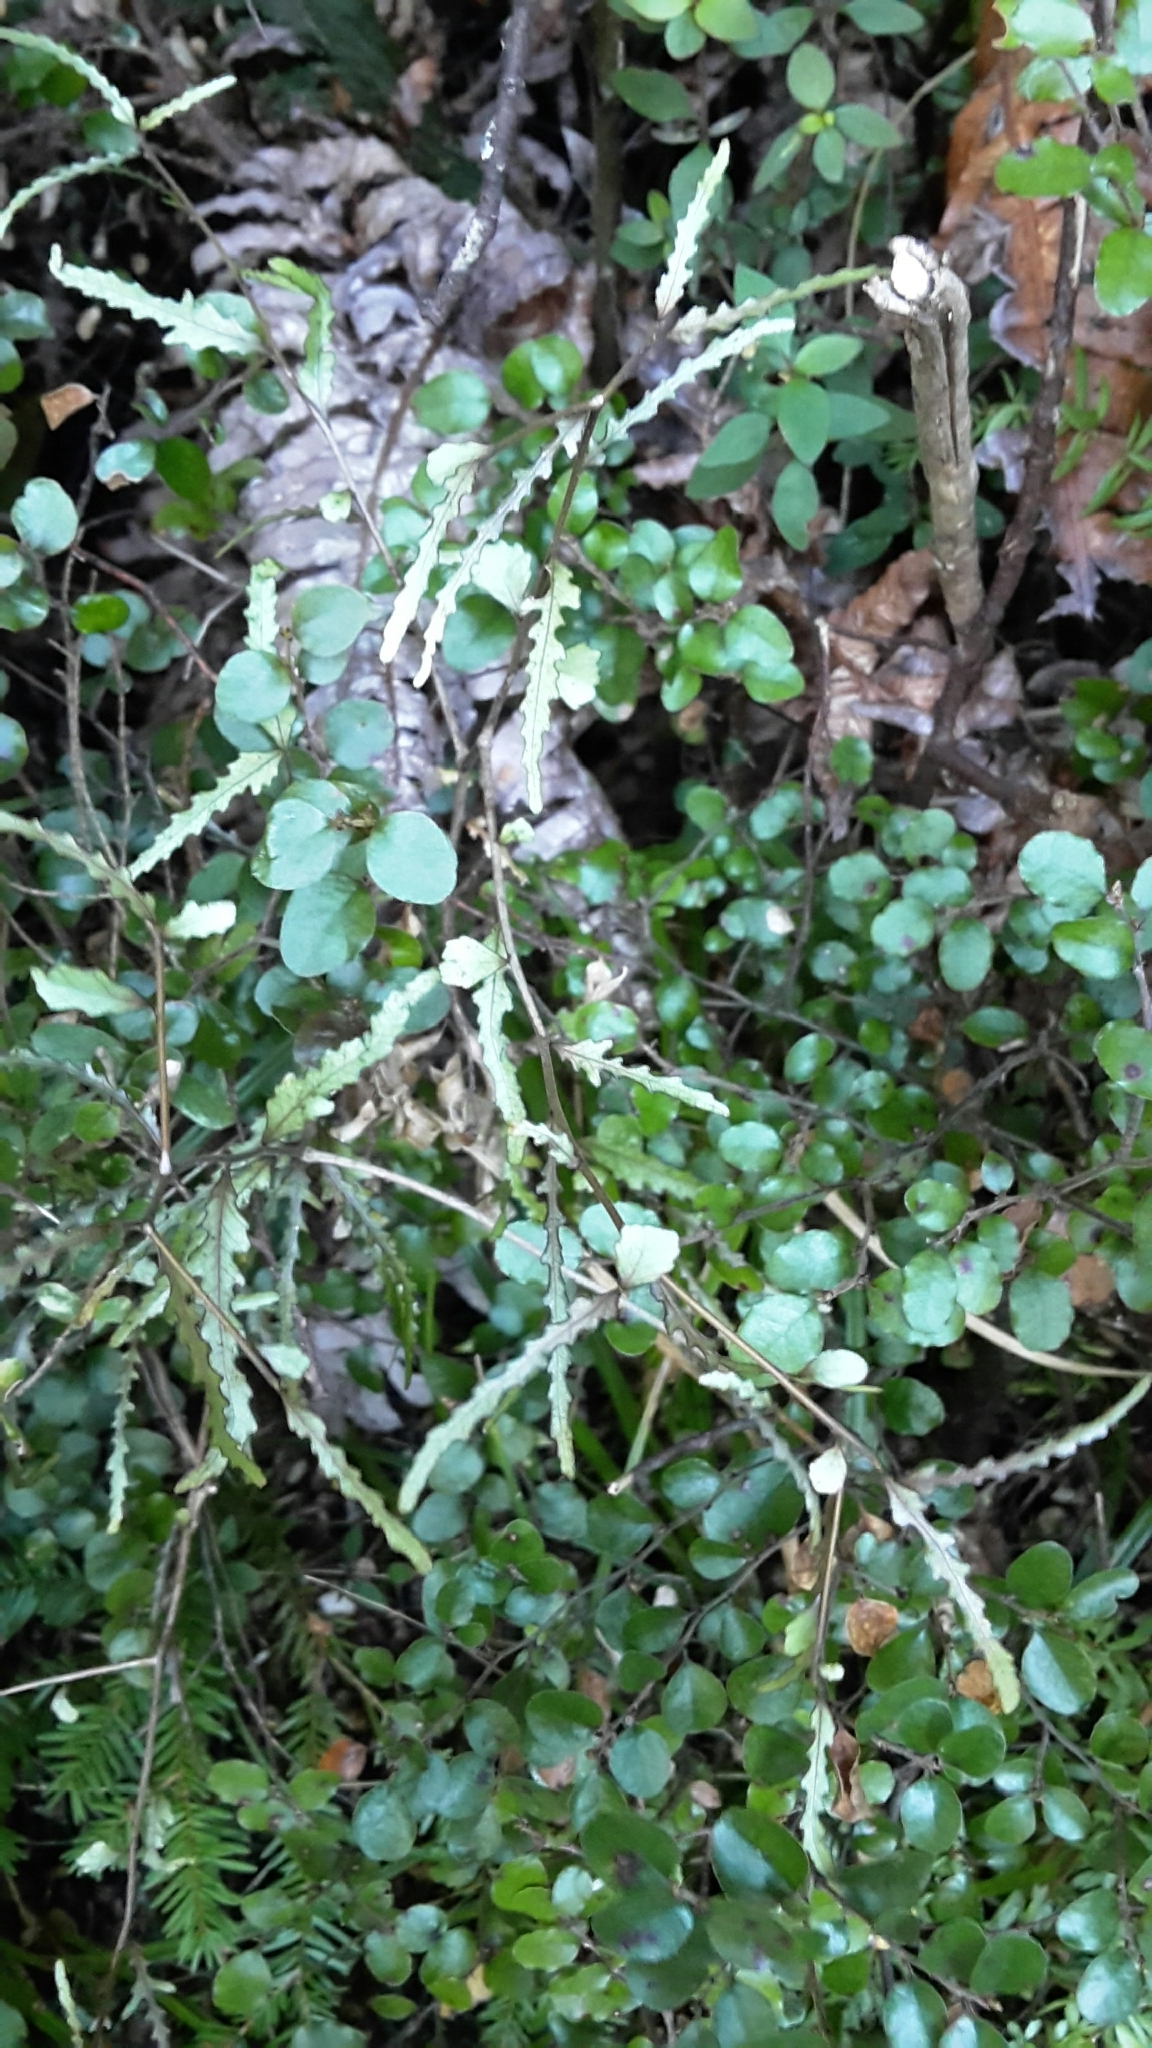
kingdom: Plantae
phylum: Tracheophyta
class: Magnoliopsida
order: Oxalidales
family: Elaeocarpaceae
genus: Elaeocarpus
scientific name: Elaeocarpus hookerianus
